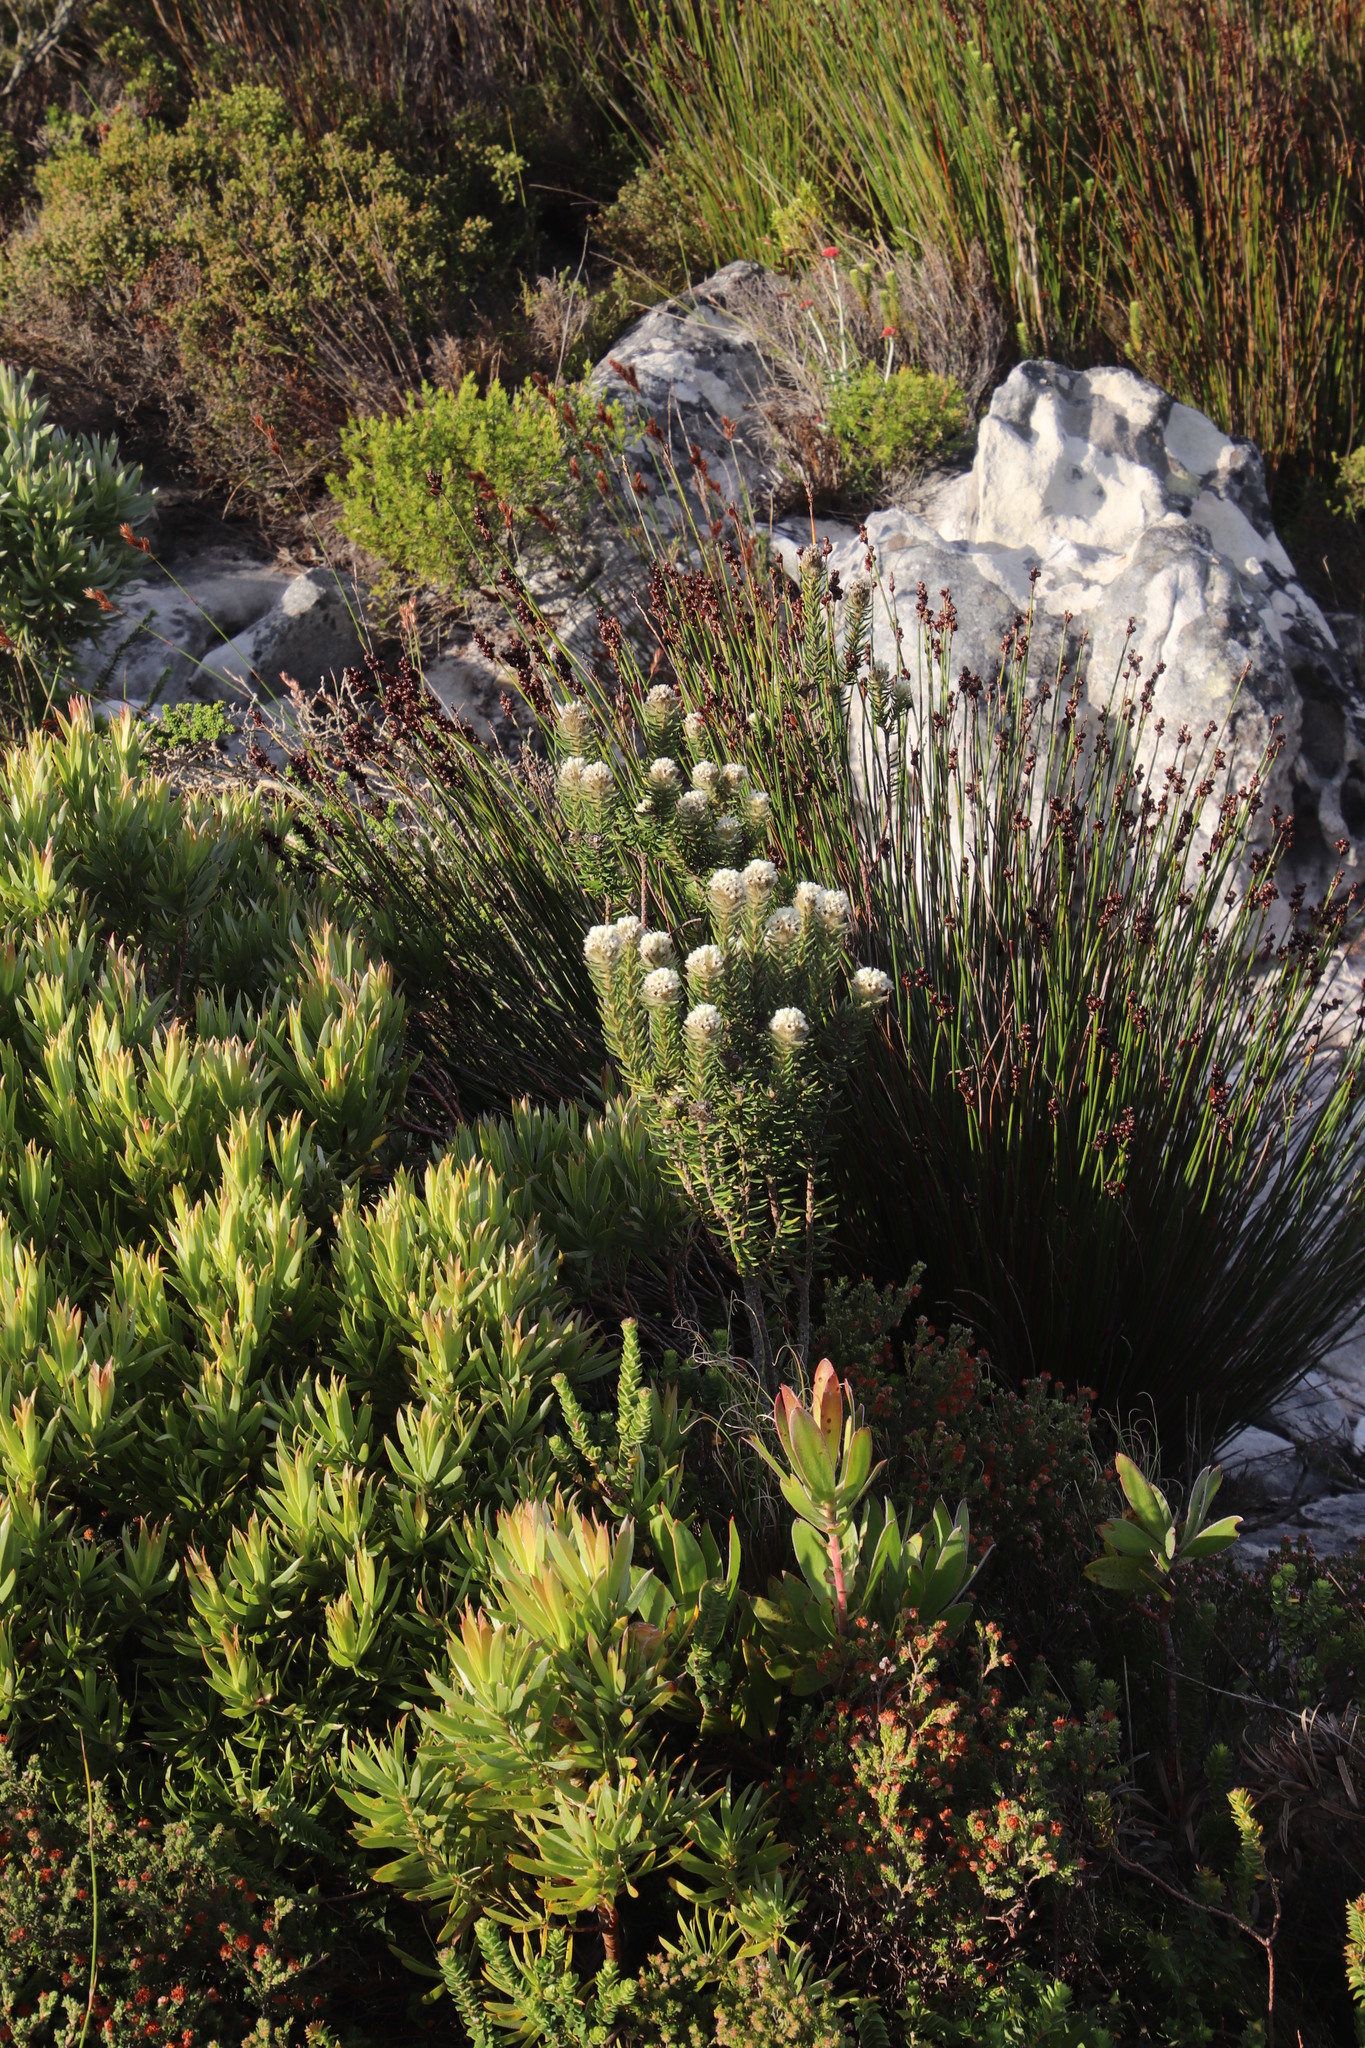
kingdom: Plantae
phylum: Tracheophyta
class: Magnoliopsida
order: Rosales
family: Rhamnaceae
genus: Phylica
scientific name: Phylica strigosa
